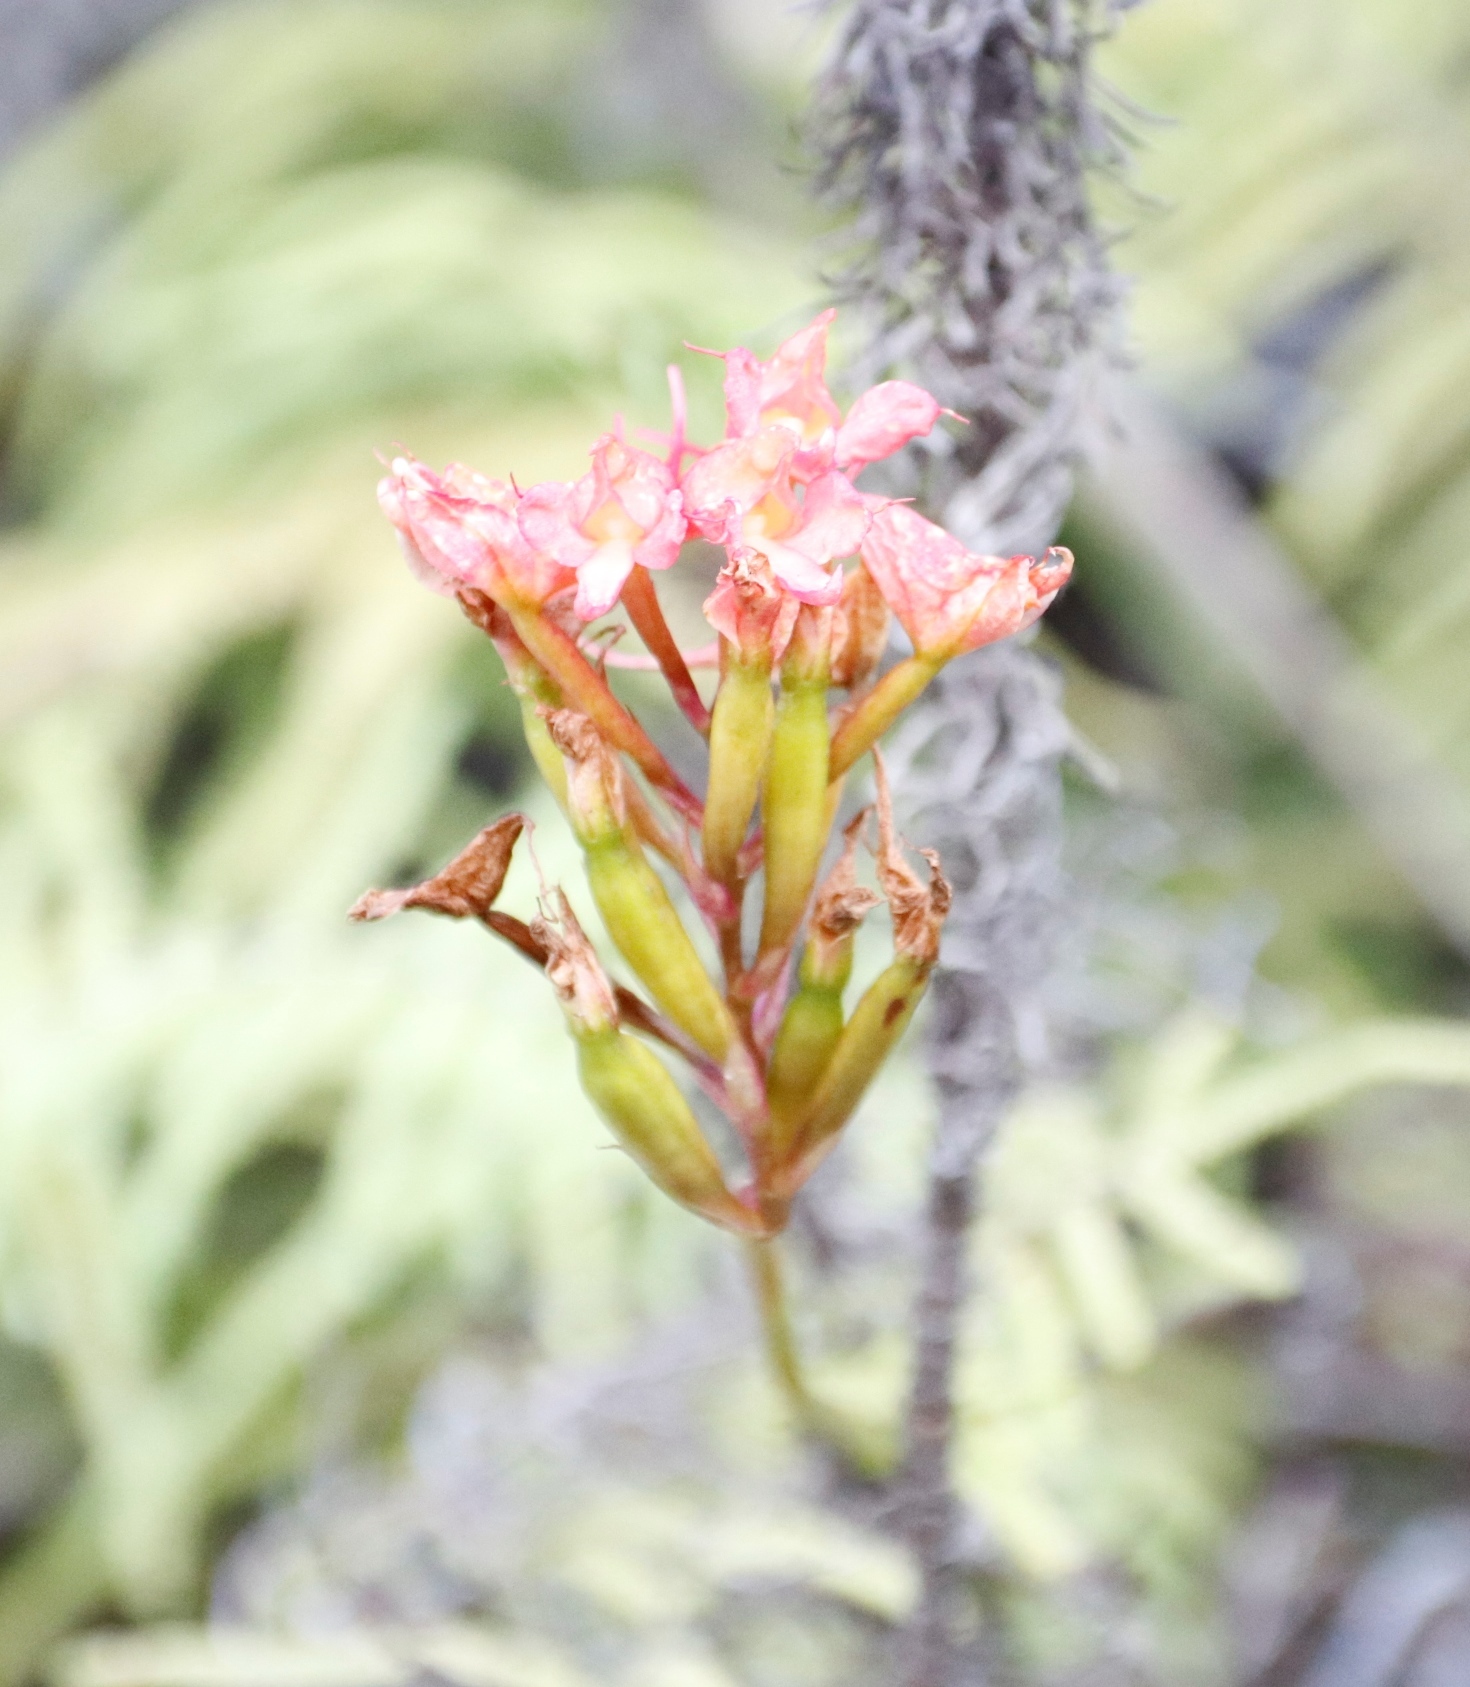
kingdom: Plantae
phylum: Tracheophyta
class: Liliopsida
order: Asparagales
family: Orchidaceae
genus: Disa
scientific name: Disa ferruginea
